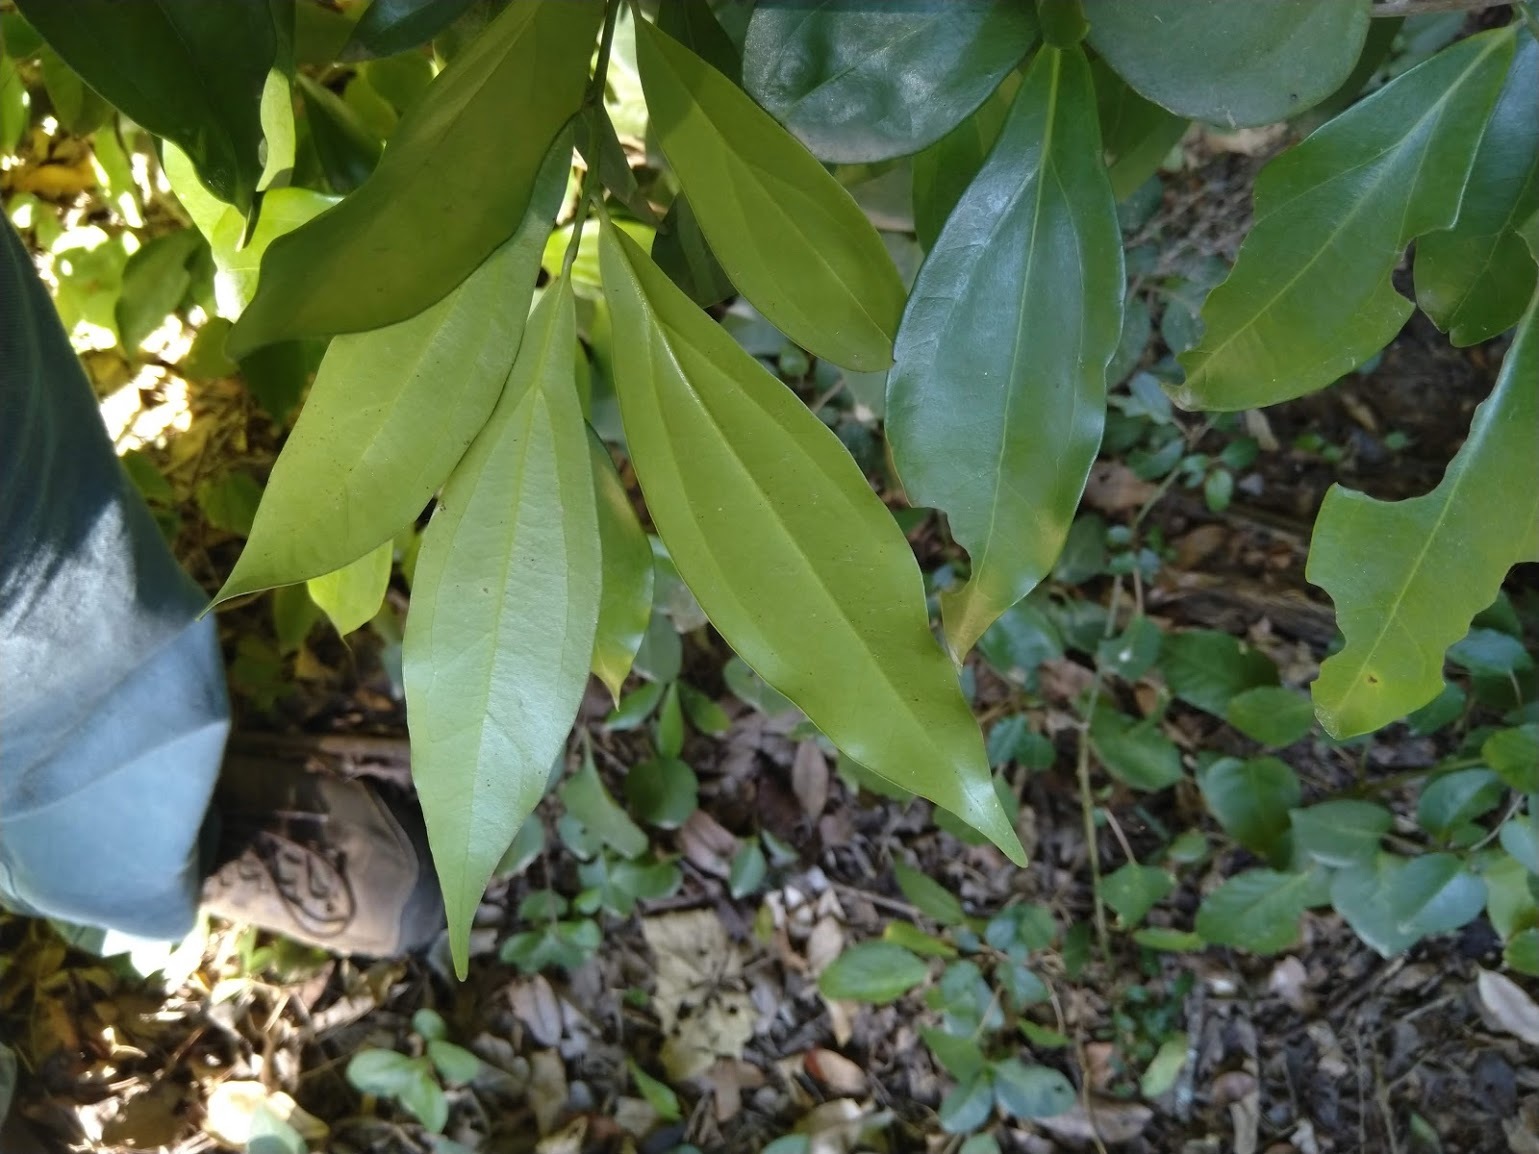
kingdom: Plantae
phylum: Tracheophyta
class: Magnoliopsida
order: Laurales
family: Lauraceae
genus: Cryptocarya
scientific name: Cryptocarya laevigata
